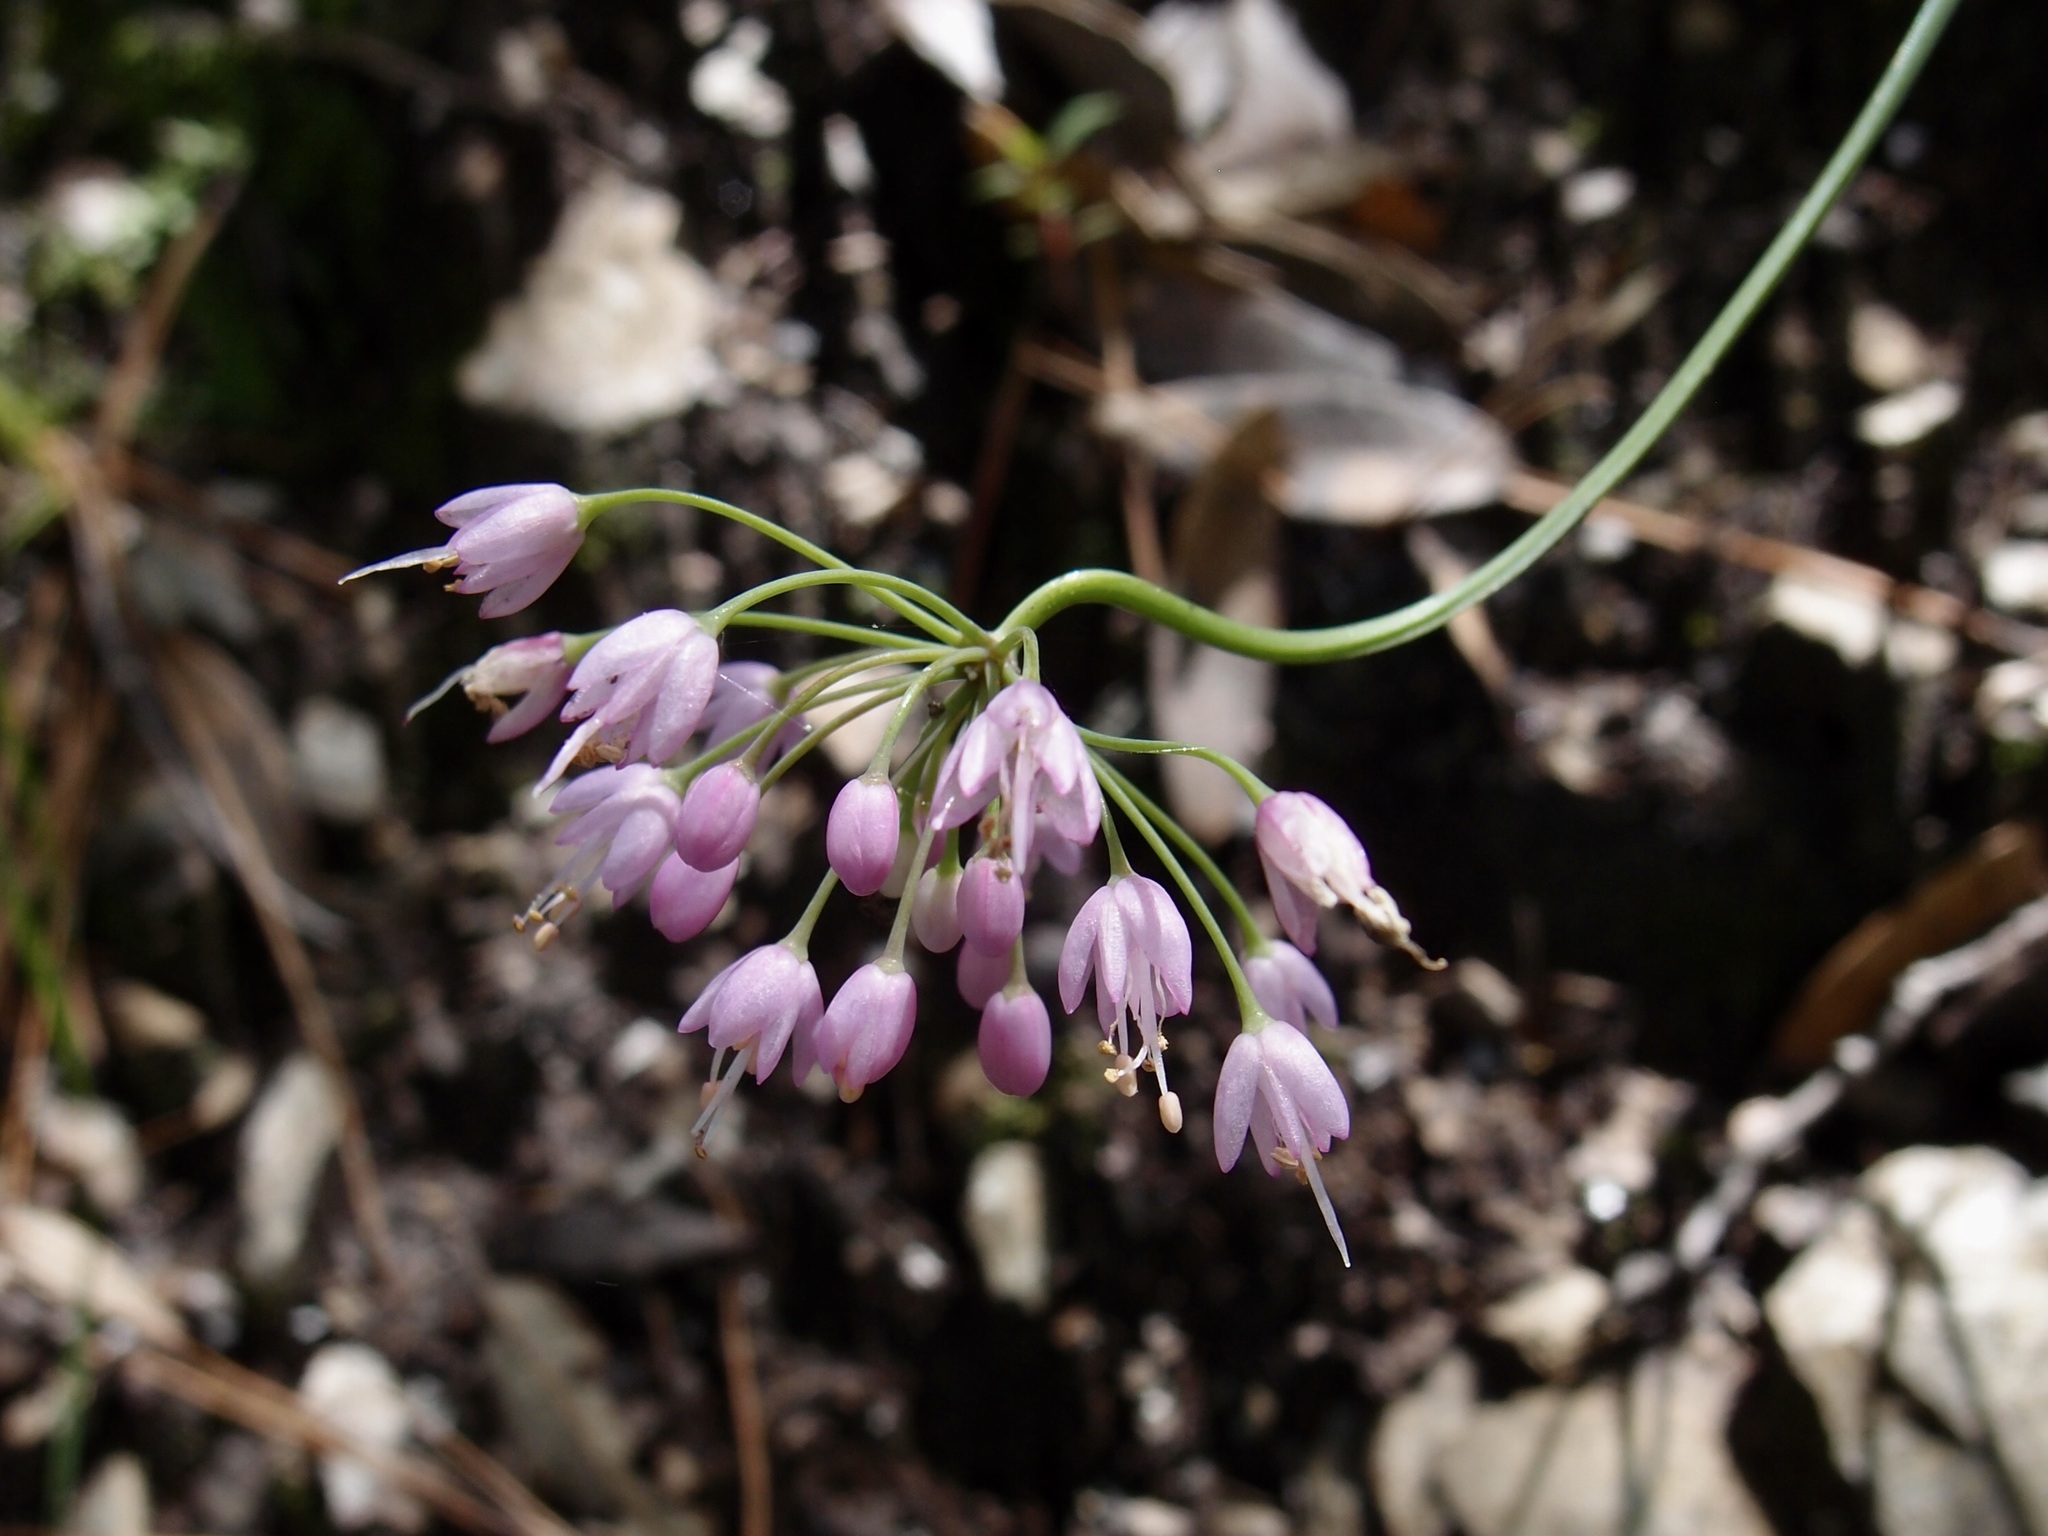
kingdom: Plantae
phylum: Tracheophyta
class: Liliopsida
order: Asparagales
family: Amaryllidaceae
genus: Allium
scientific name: Allium cernuum
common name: Nodding onion
